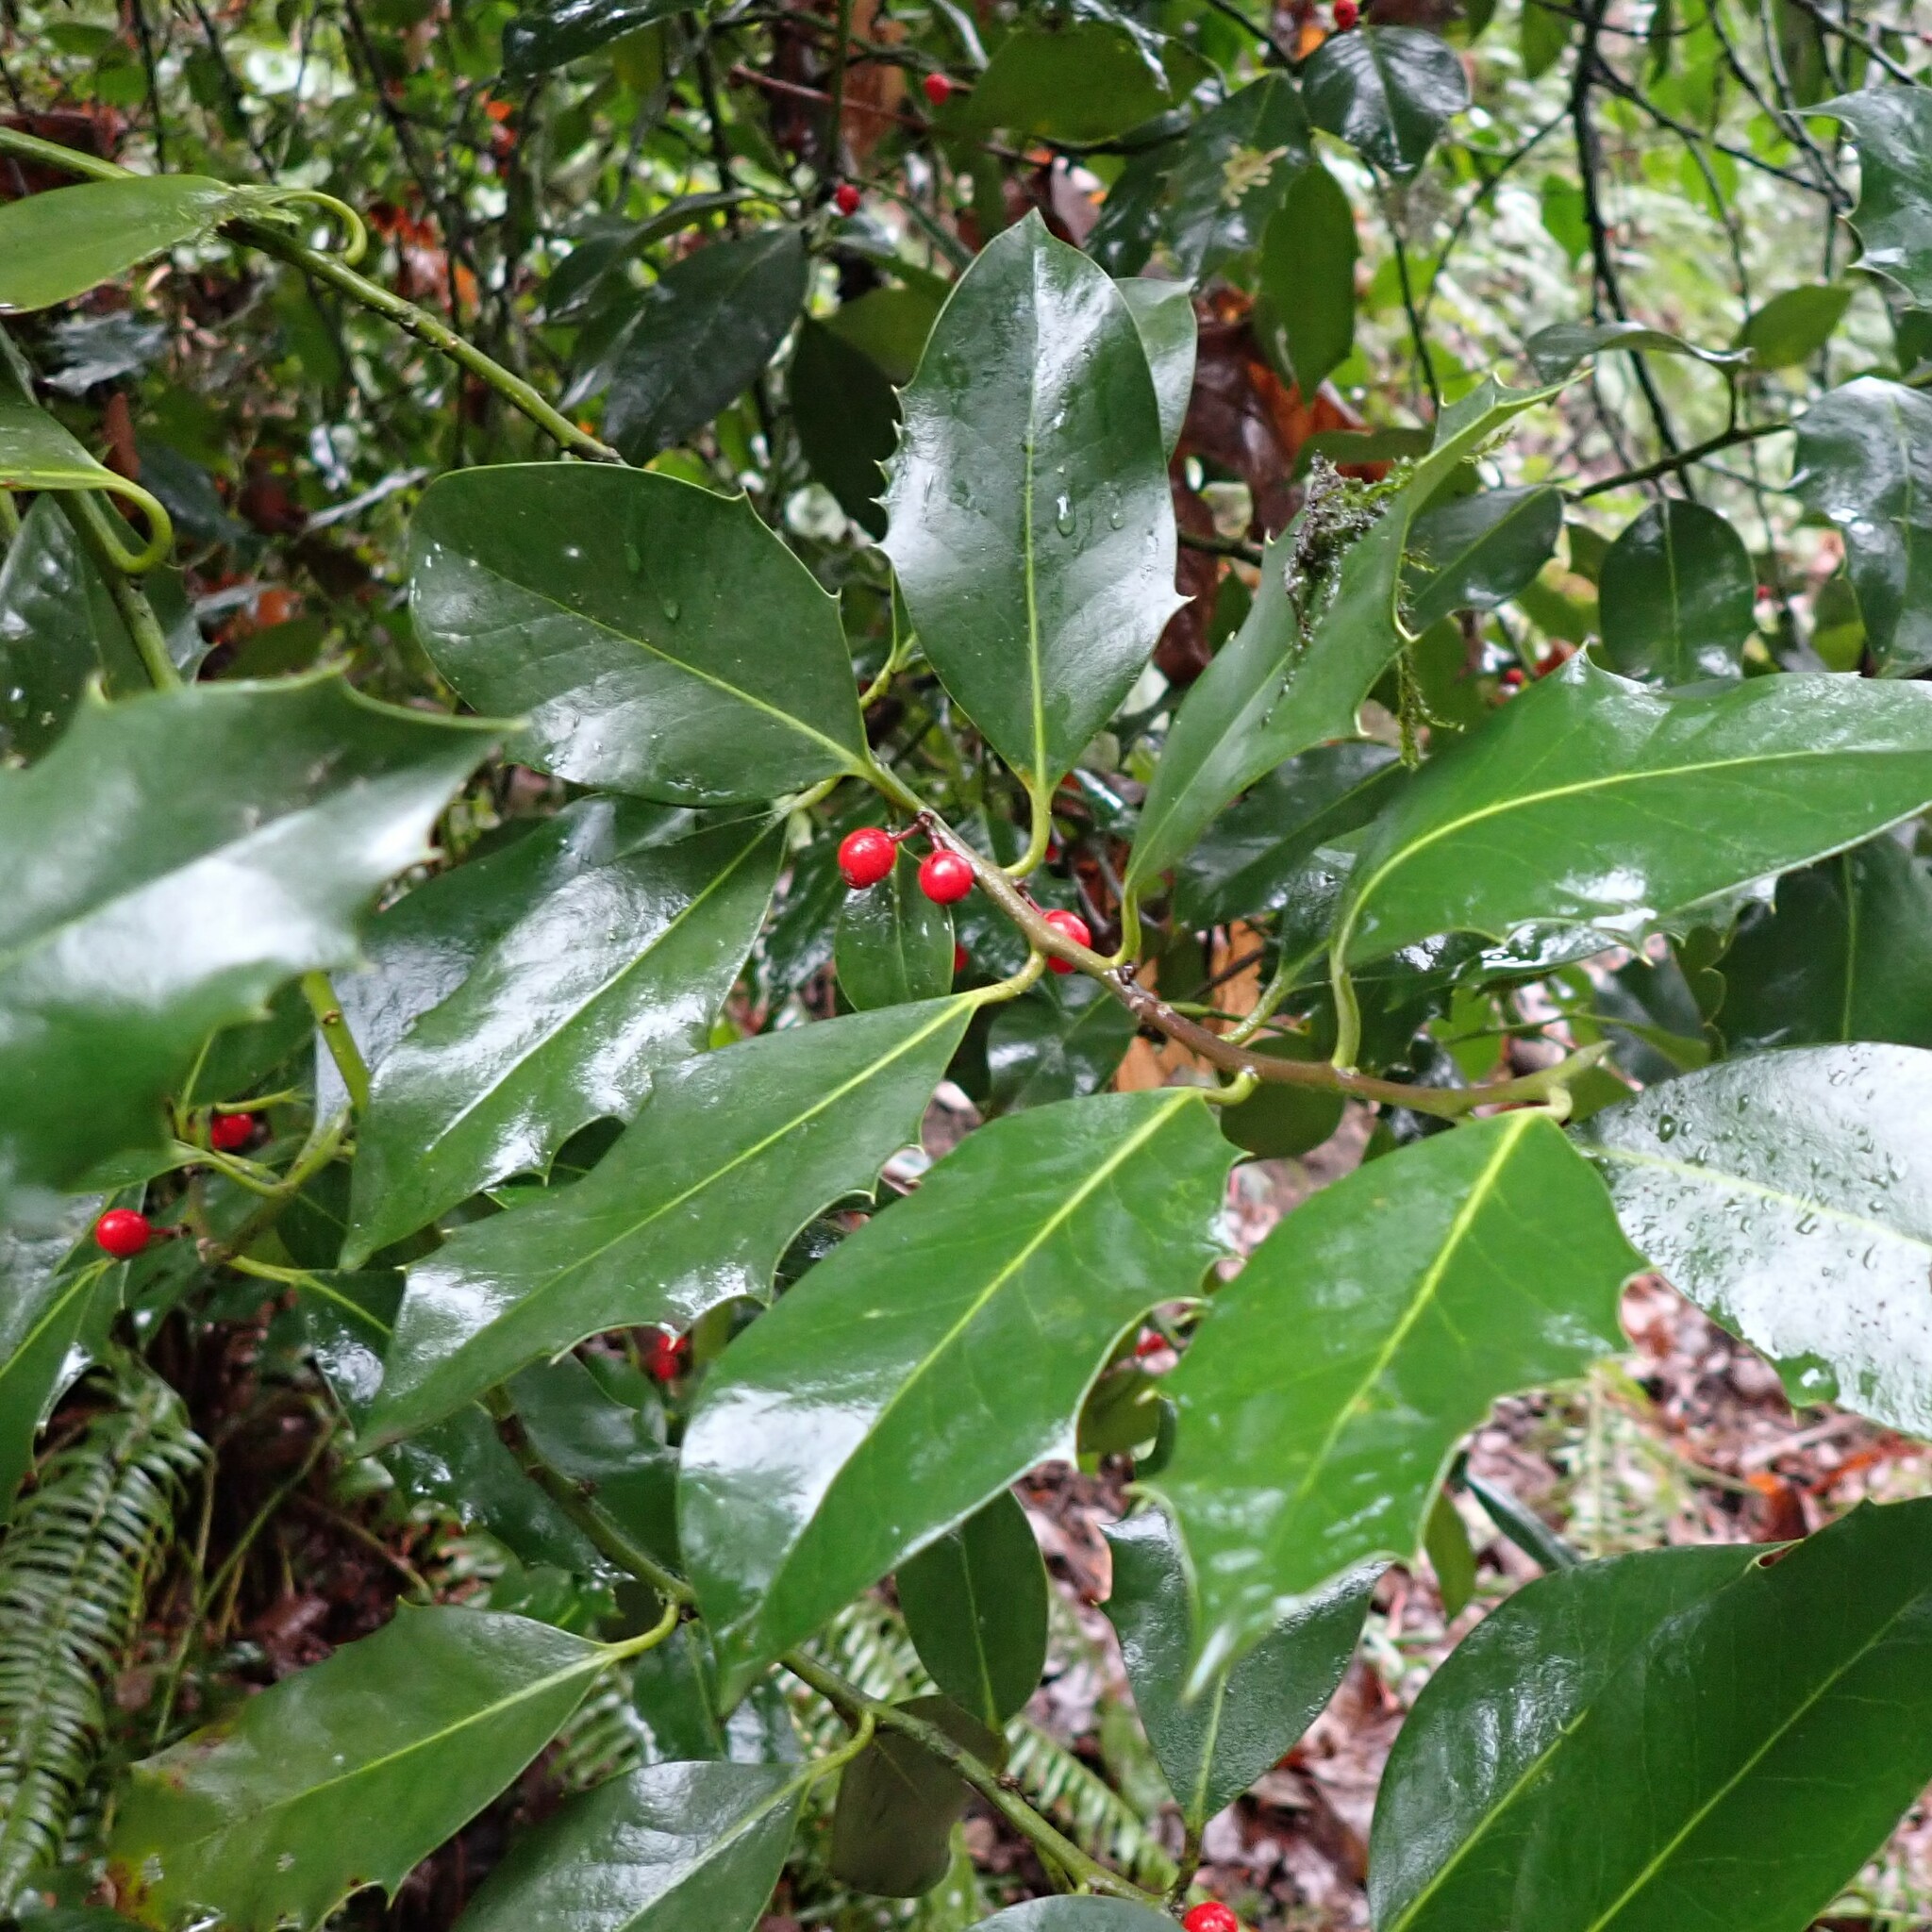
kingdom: Plantae
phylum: Tracheophyta
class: Magnoliopsida
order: Aquifoliales
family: Aquifoliaceae
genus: Ilex
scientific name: Ilex aquifolium
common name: English holly
